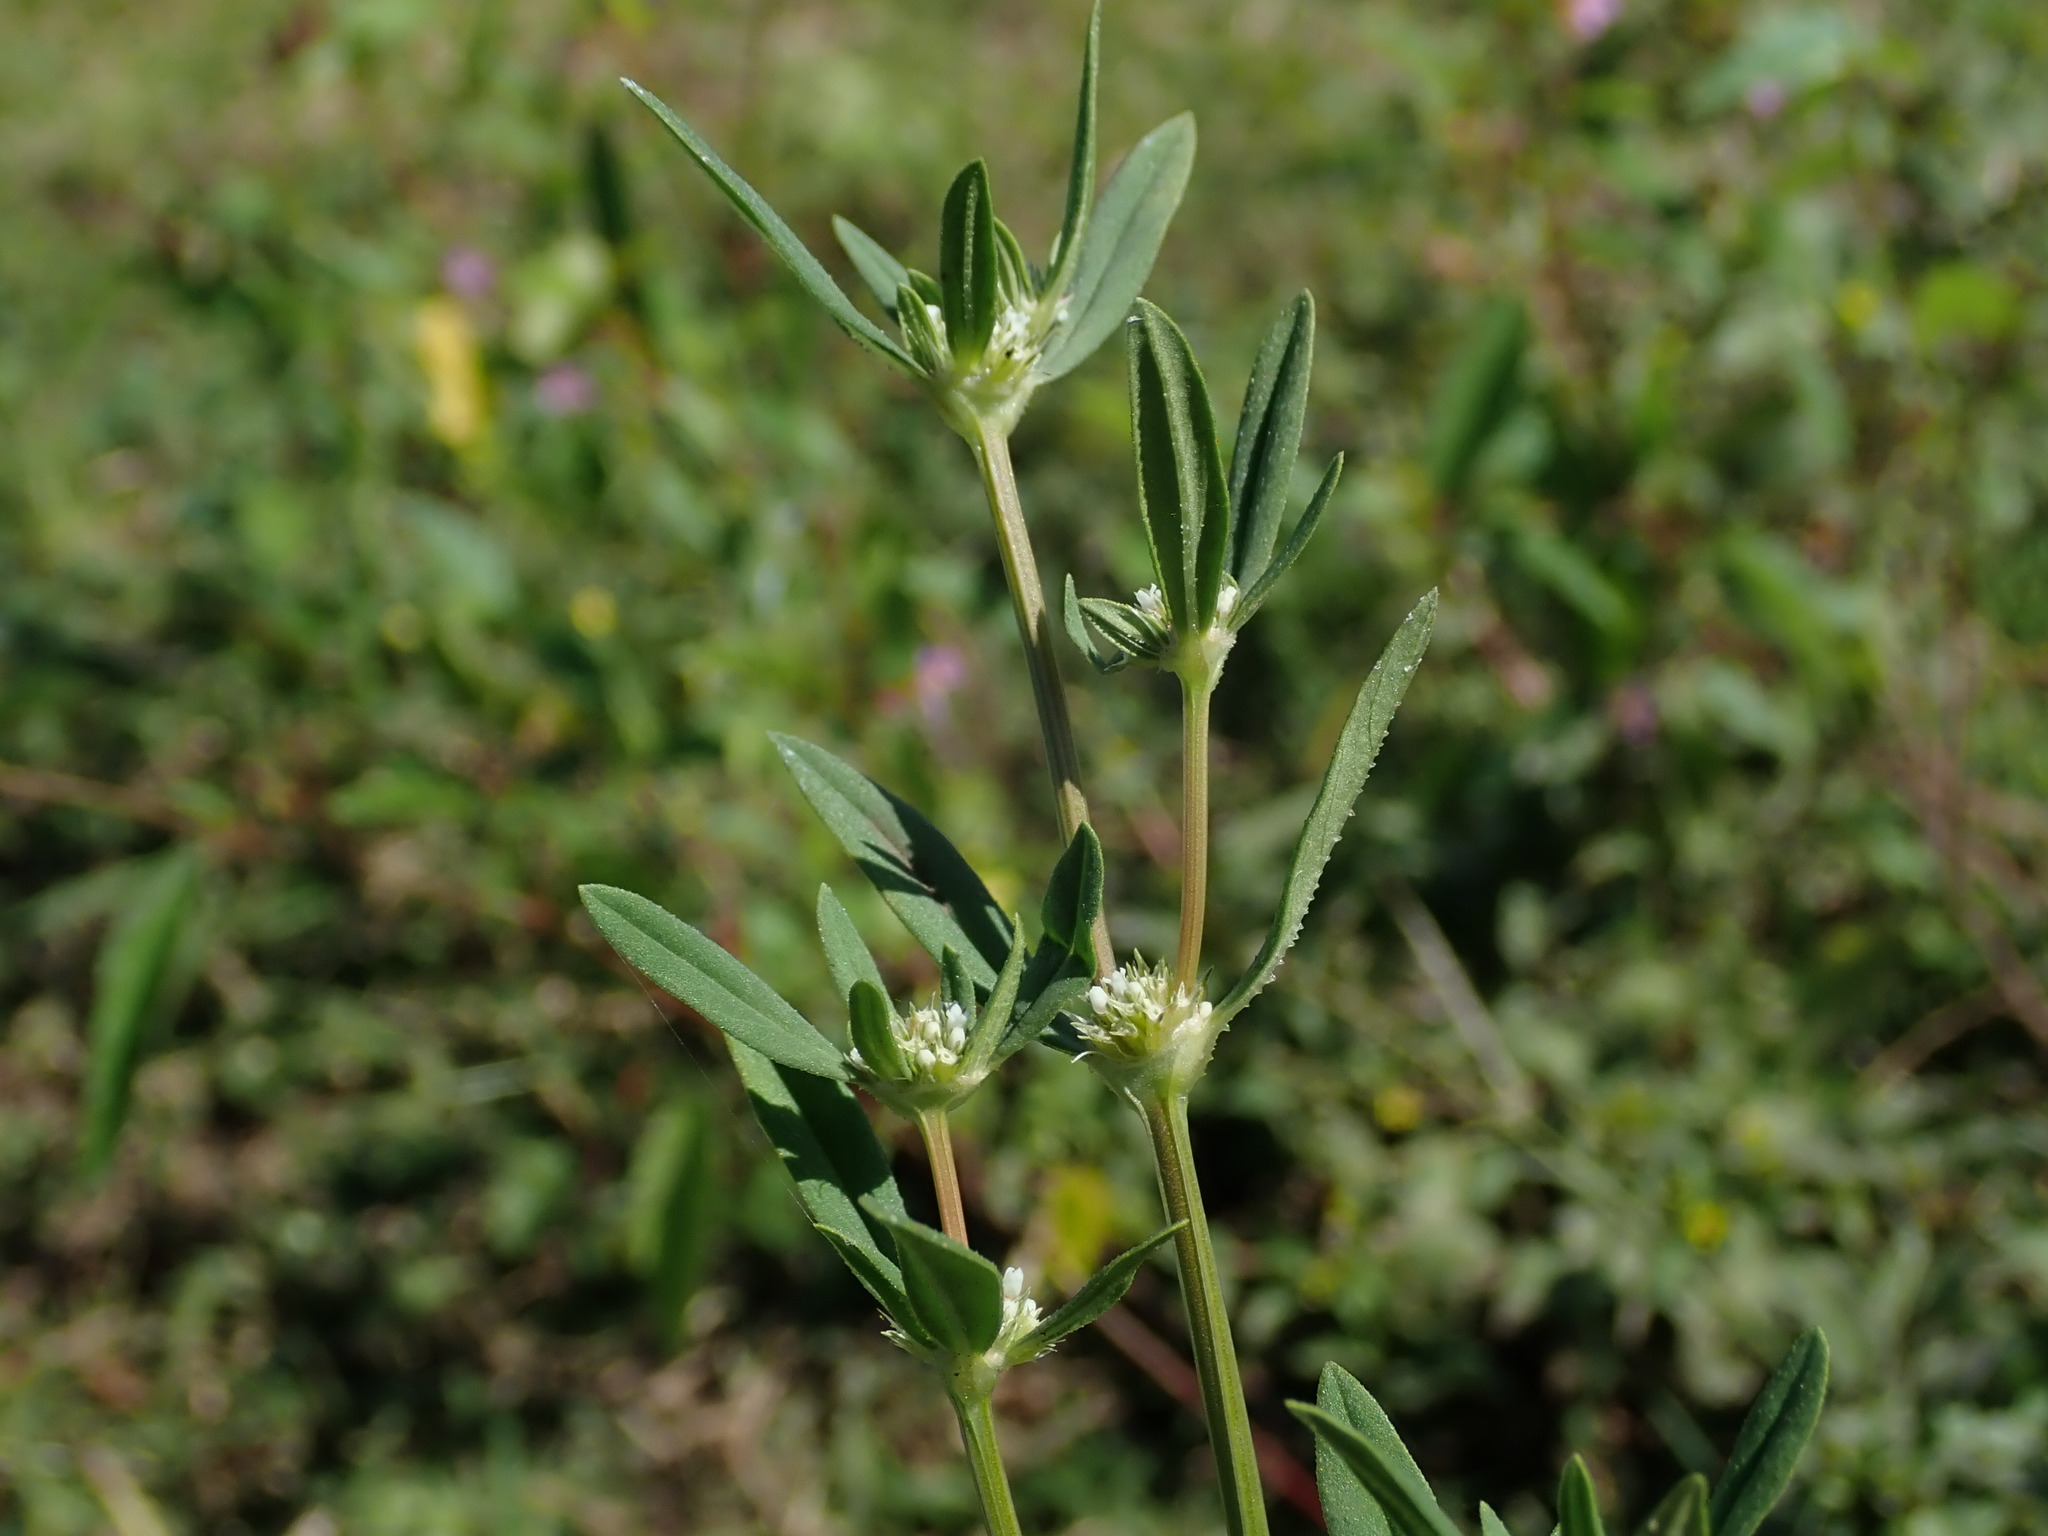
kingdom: Plantae
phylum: Tracheophyta
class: Magnoliopsida
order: Gentianales
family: Rubiaceae
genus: Spermacoce
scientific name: Spermacoce verticillata
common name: Shrubby false buttonweed
